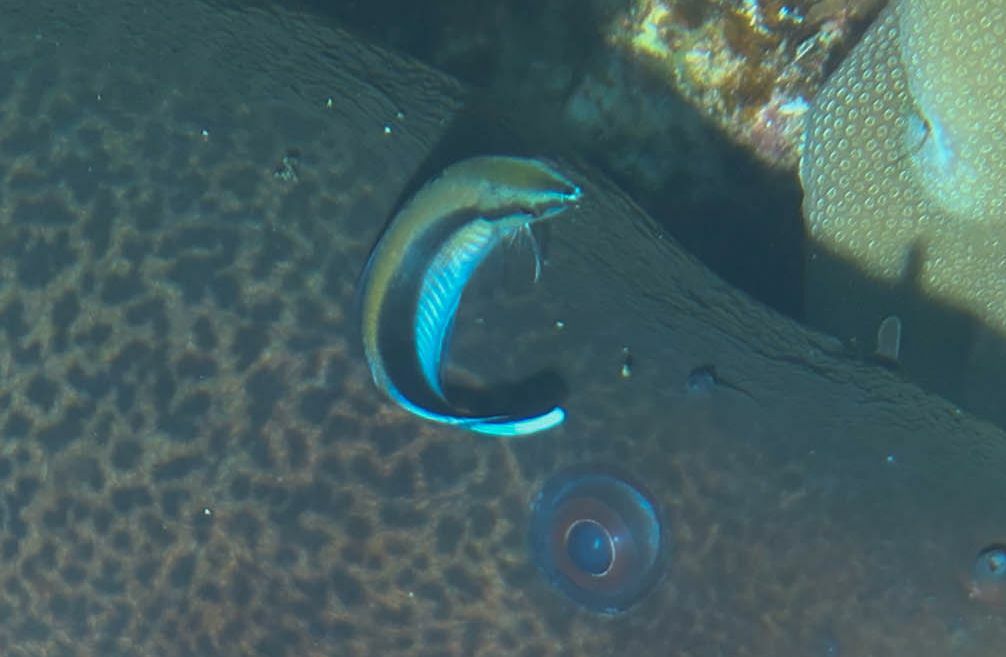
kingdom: Animalia
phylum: Chordata
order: Perciformes
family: Labridae
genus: Labroides
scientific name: Labroides dimidiatus
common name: Blue diesel wrasse
